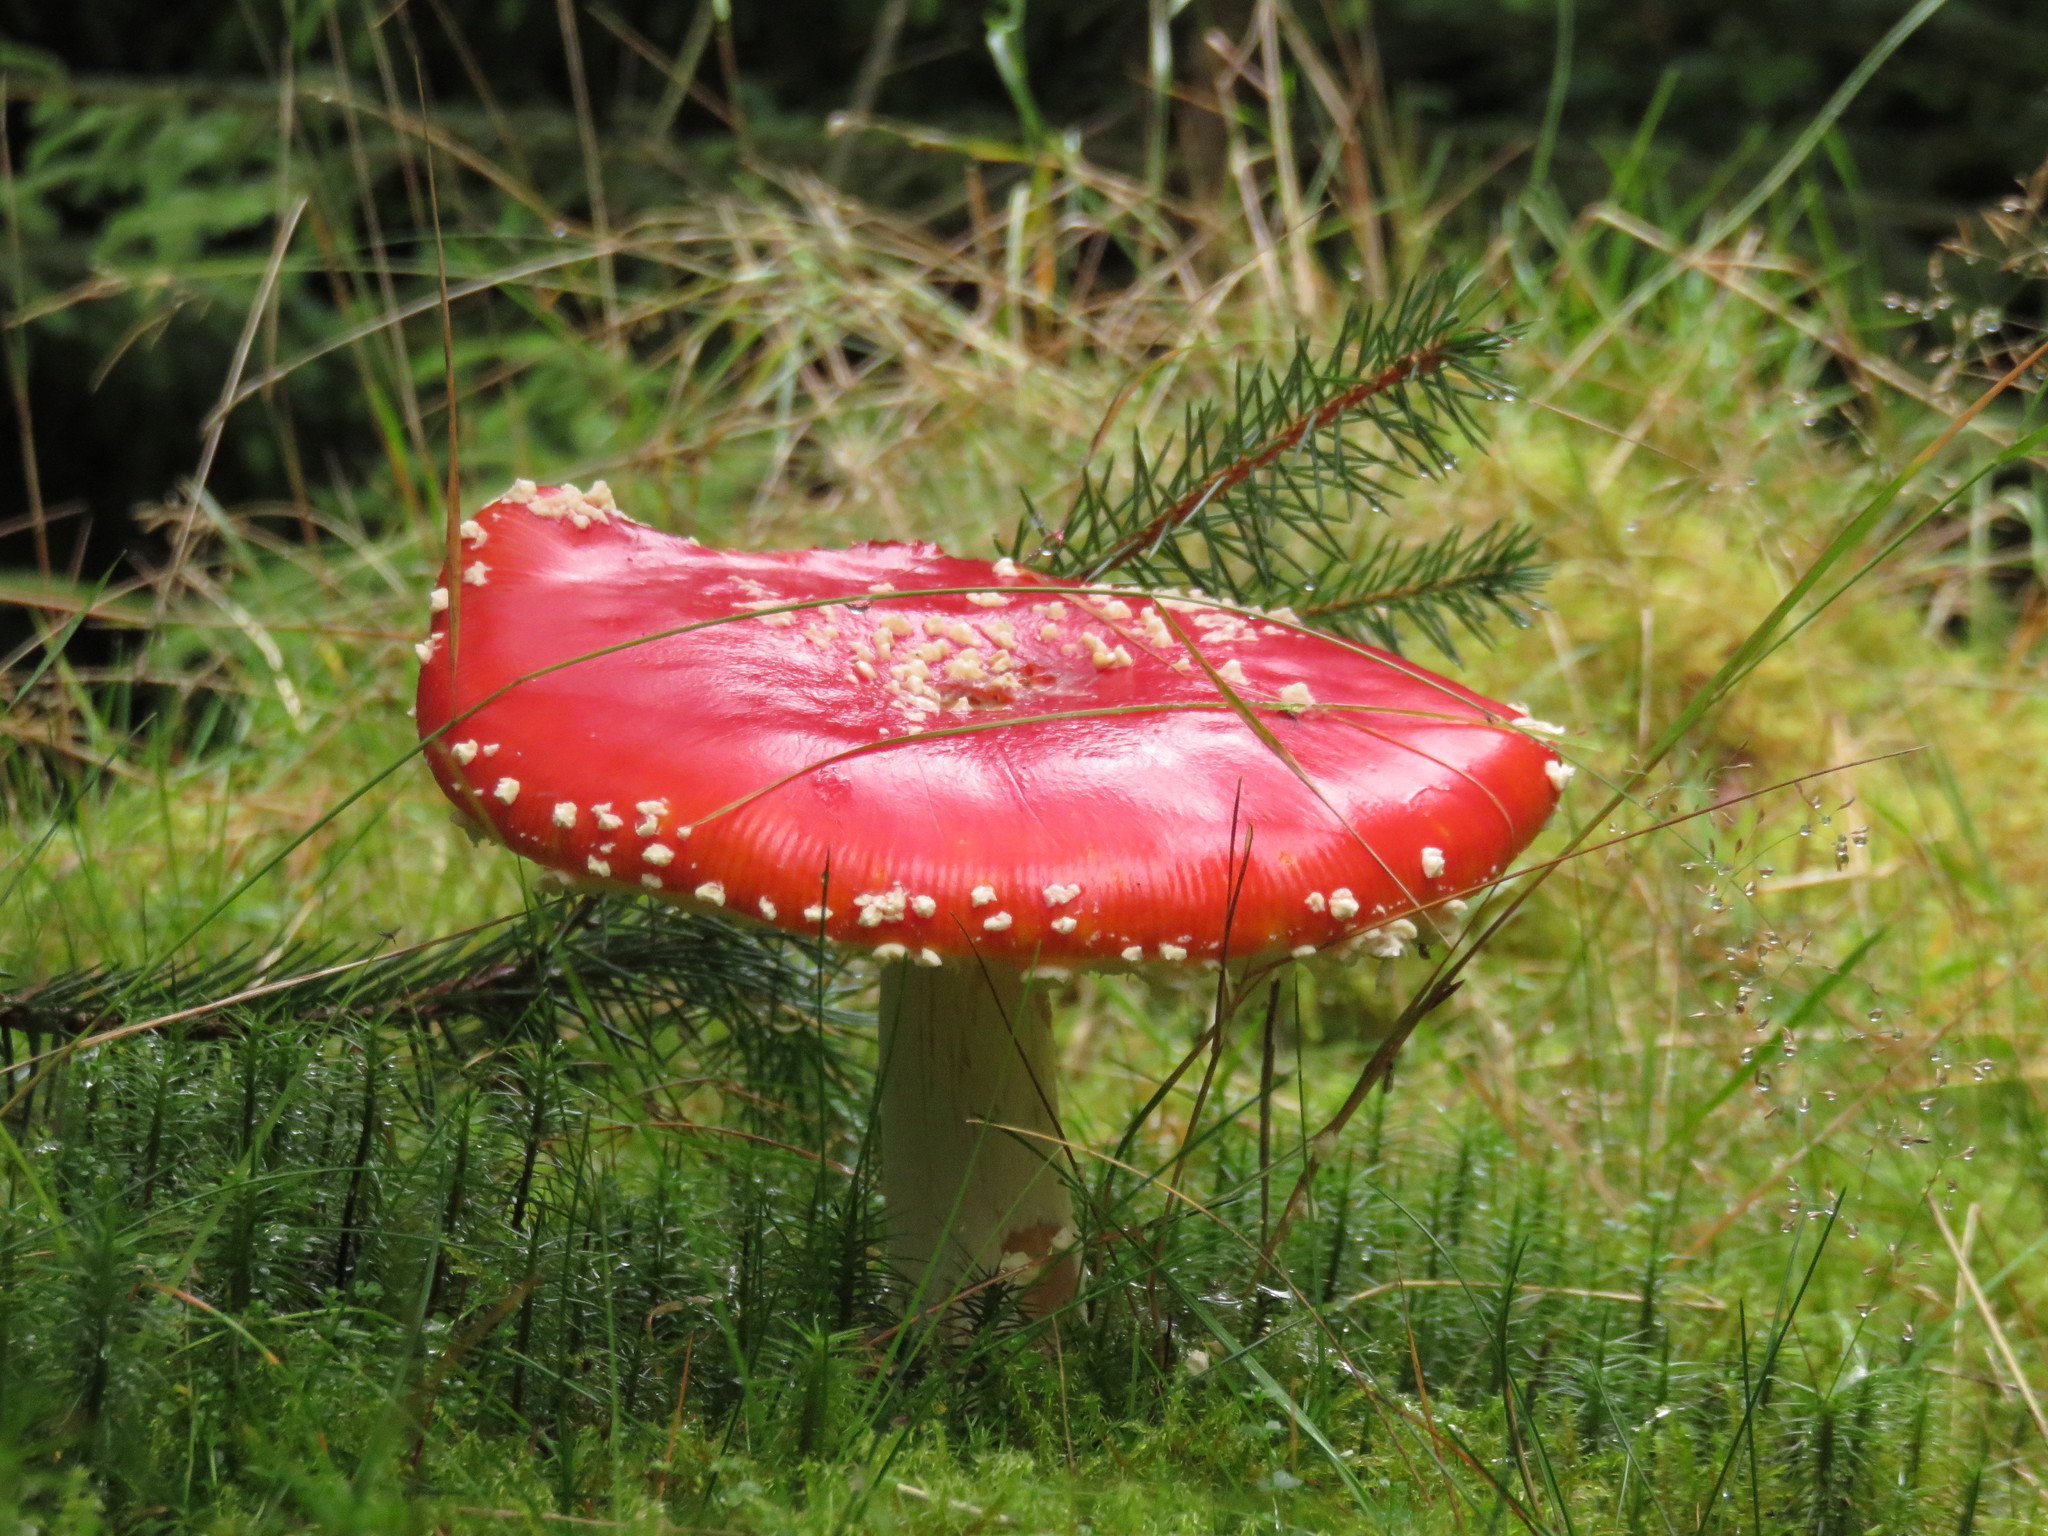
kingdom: Fungi
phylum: Basidiomycota
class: Agaricomycetes
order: Agaricales
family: Amanitaceae
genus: Amanita
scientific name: Amanita muscaria
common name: Fly agaric
